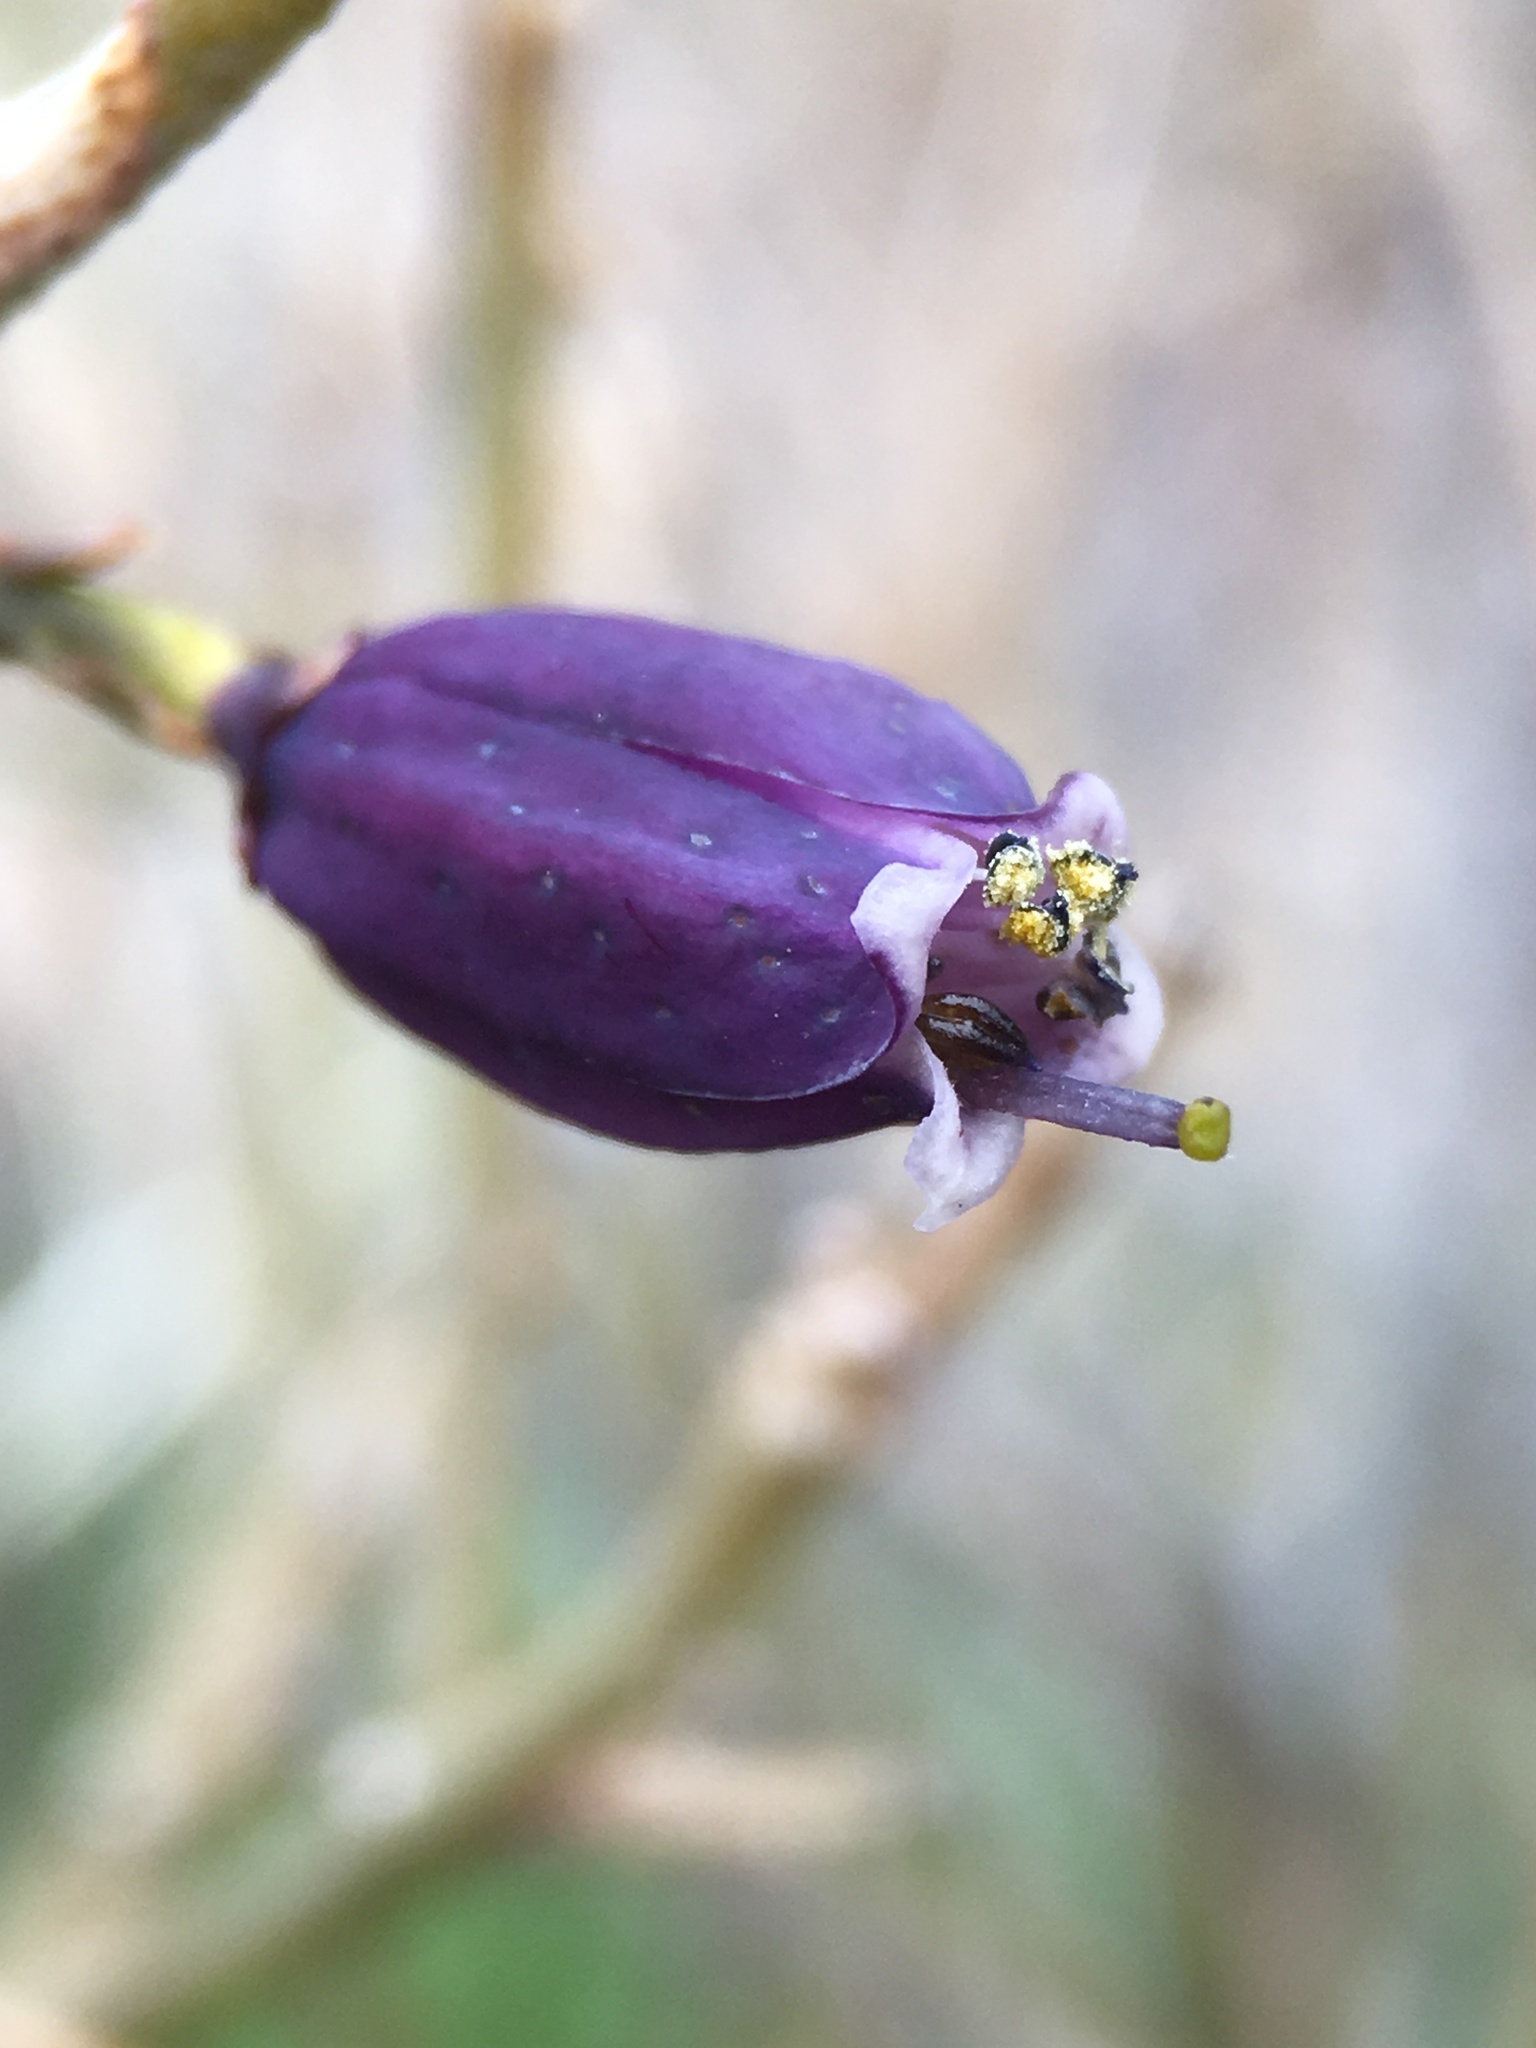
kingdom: Plantae
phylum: Tracheophyta
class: Magnoliopsida
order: Sapindales
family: Rutaceae
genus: Thamnosma
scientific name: Thamnosma montana
